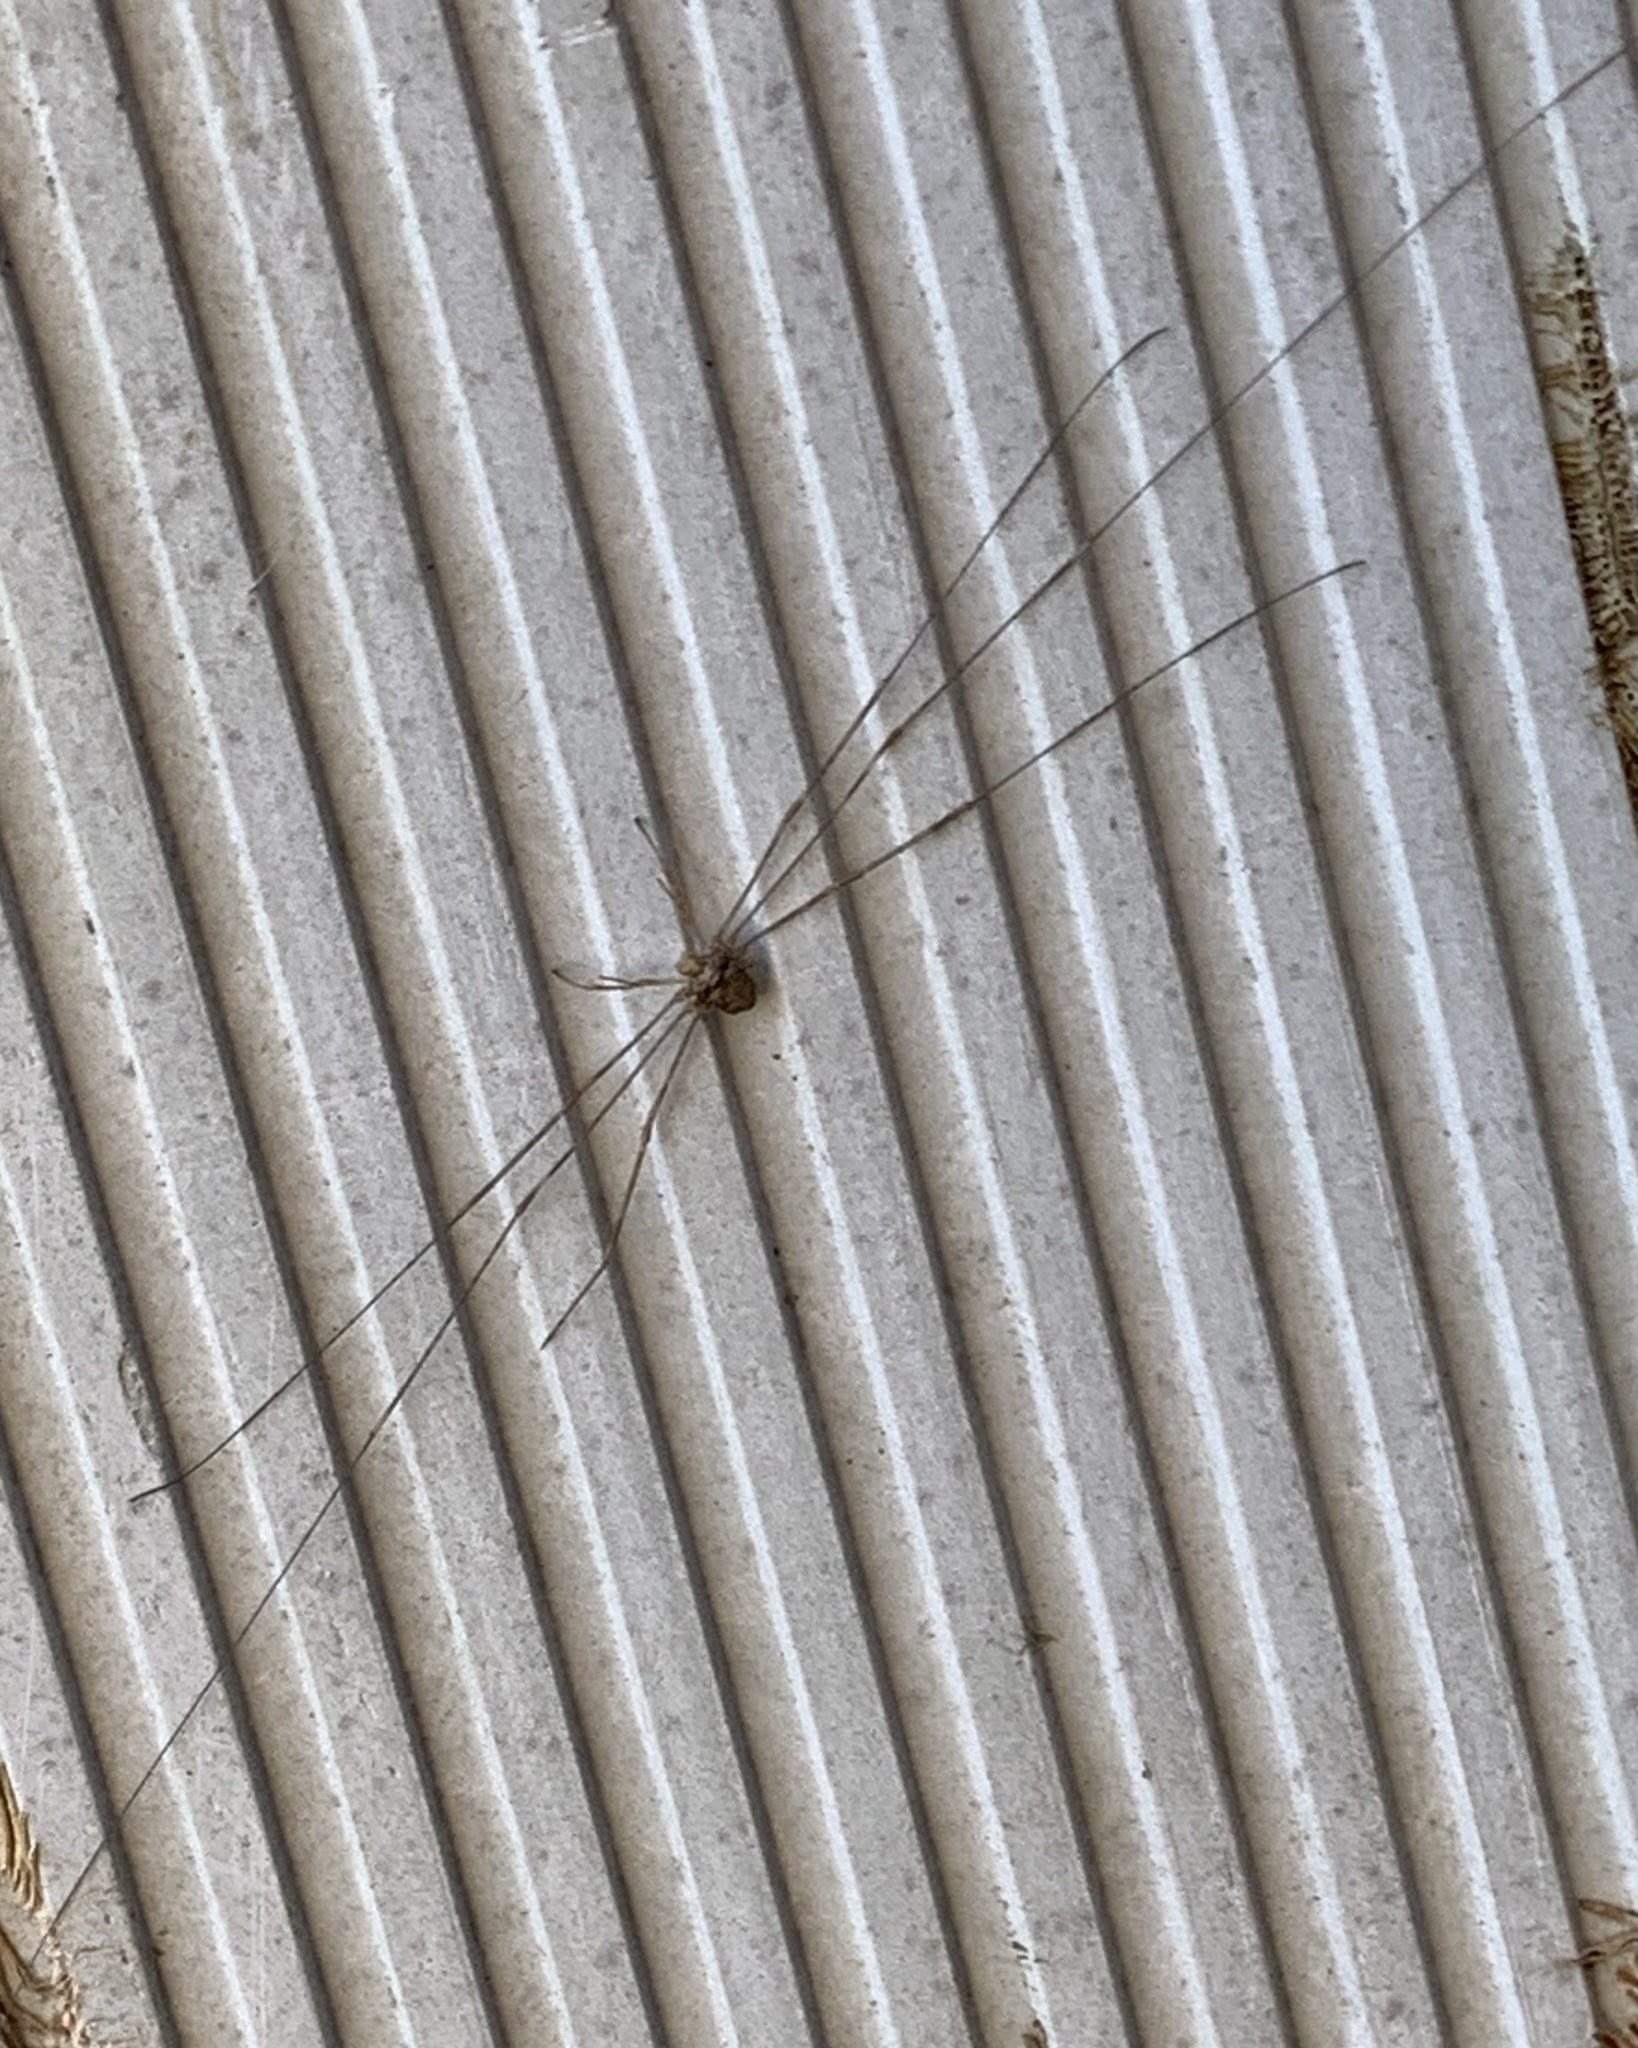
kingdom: Animalia
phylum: Arthropoda
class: Arachnida
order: Opiliones
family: Phalangiidae
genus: Dicranopalpus
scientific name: Dicranopalpus ramosus
